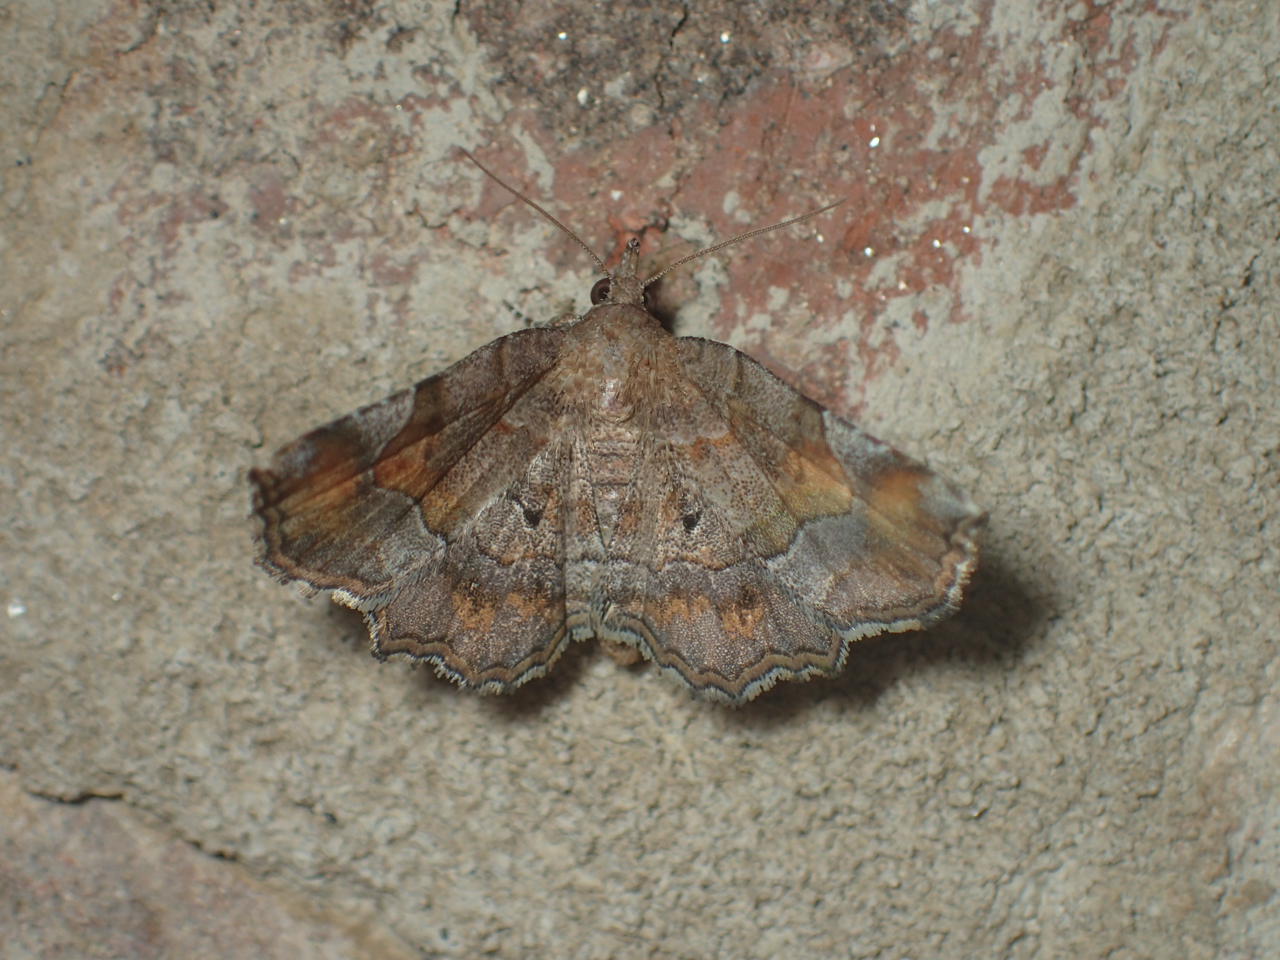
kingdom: Animalia
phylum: Arthropoda
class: Insecta
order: Lepidoptera
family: Erebidae
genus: Pangrapta
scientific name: Pangrapta decoralis
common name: Decorated owlet
